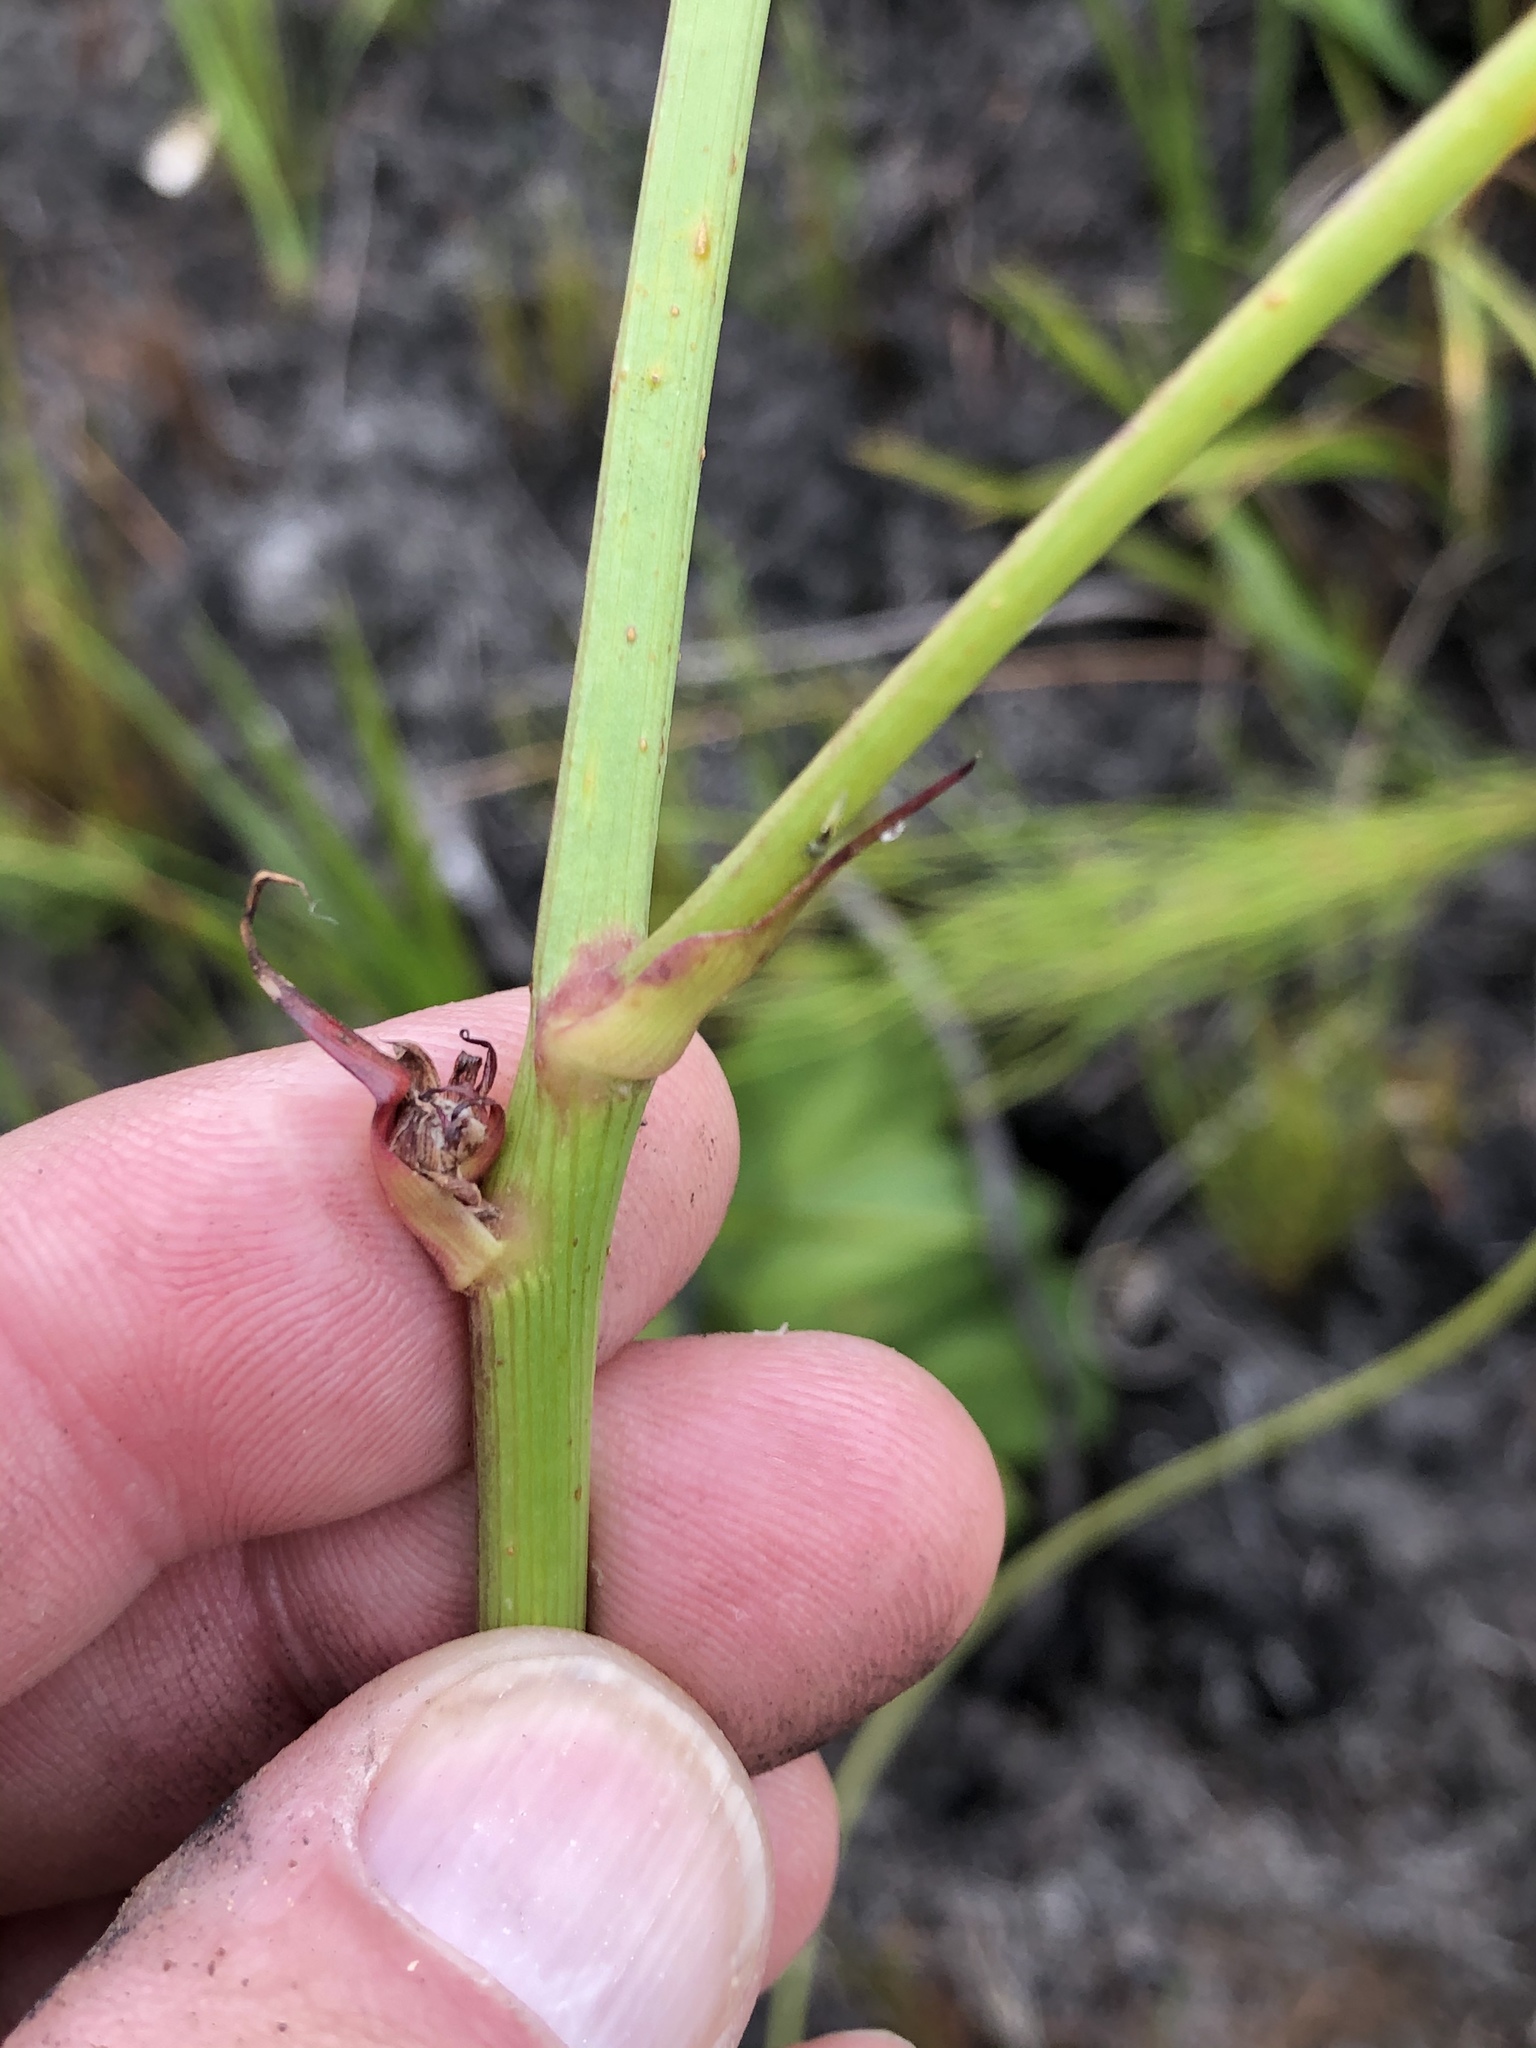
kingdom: Plantae
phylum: Tracheophyta
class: Magnoliopsida
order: Apiales
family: Apiaceae
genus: Hermas
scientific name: Hermas ciliata
